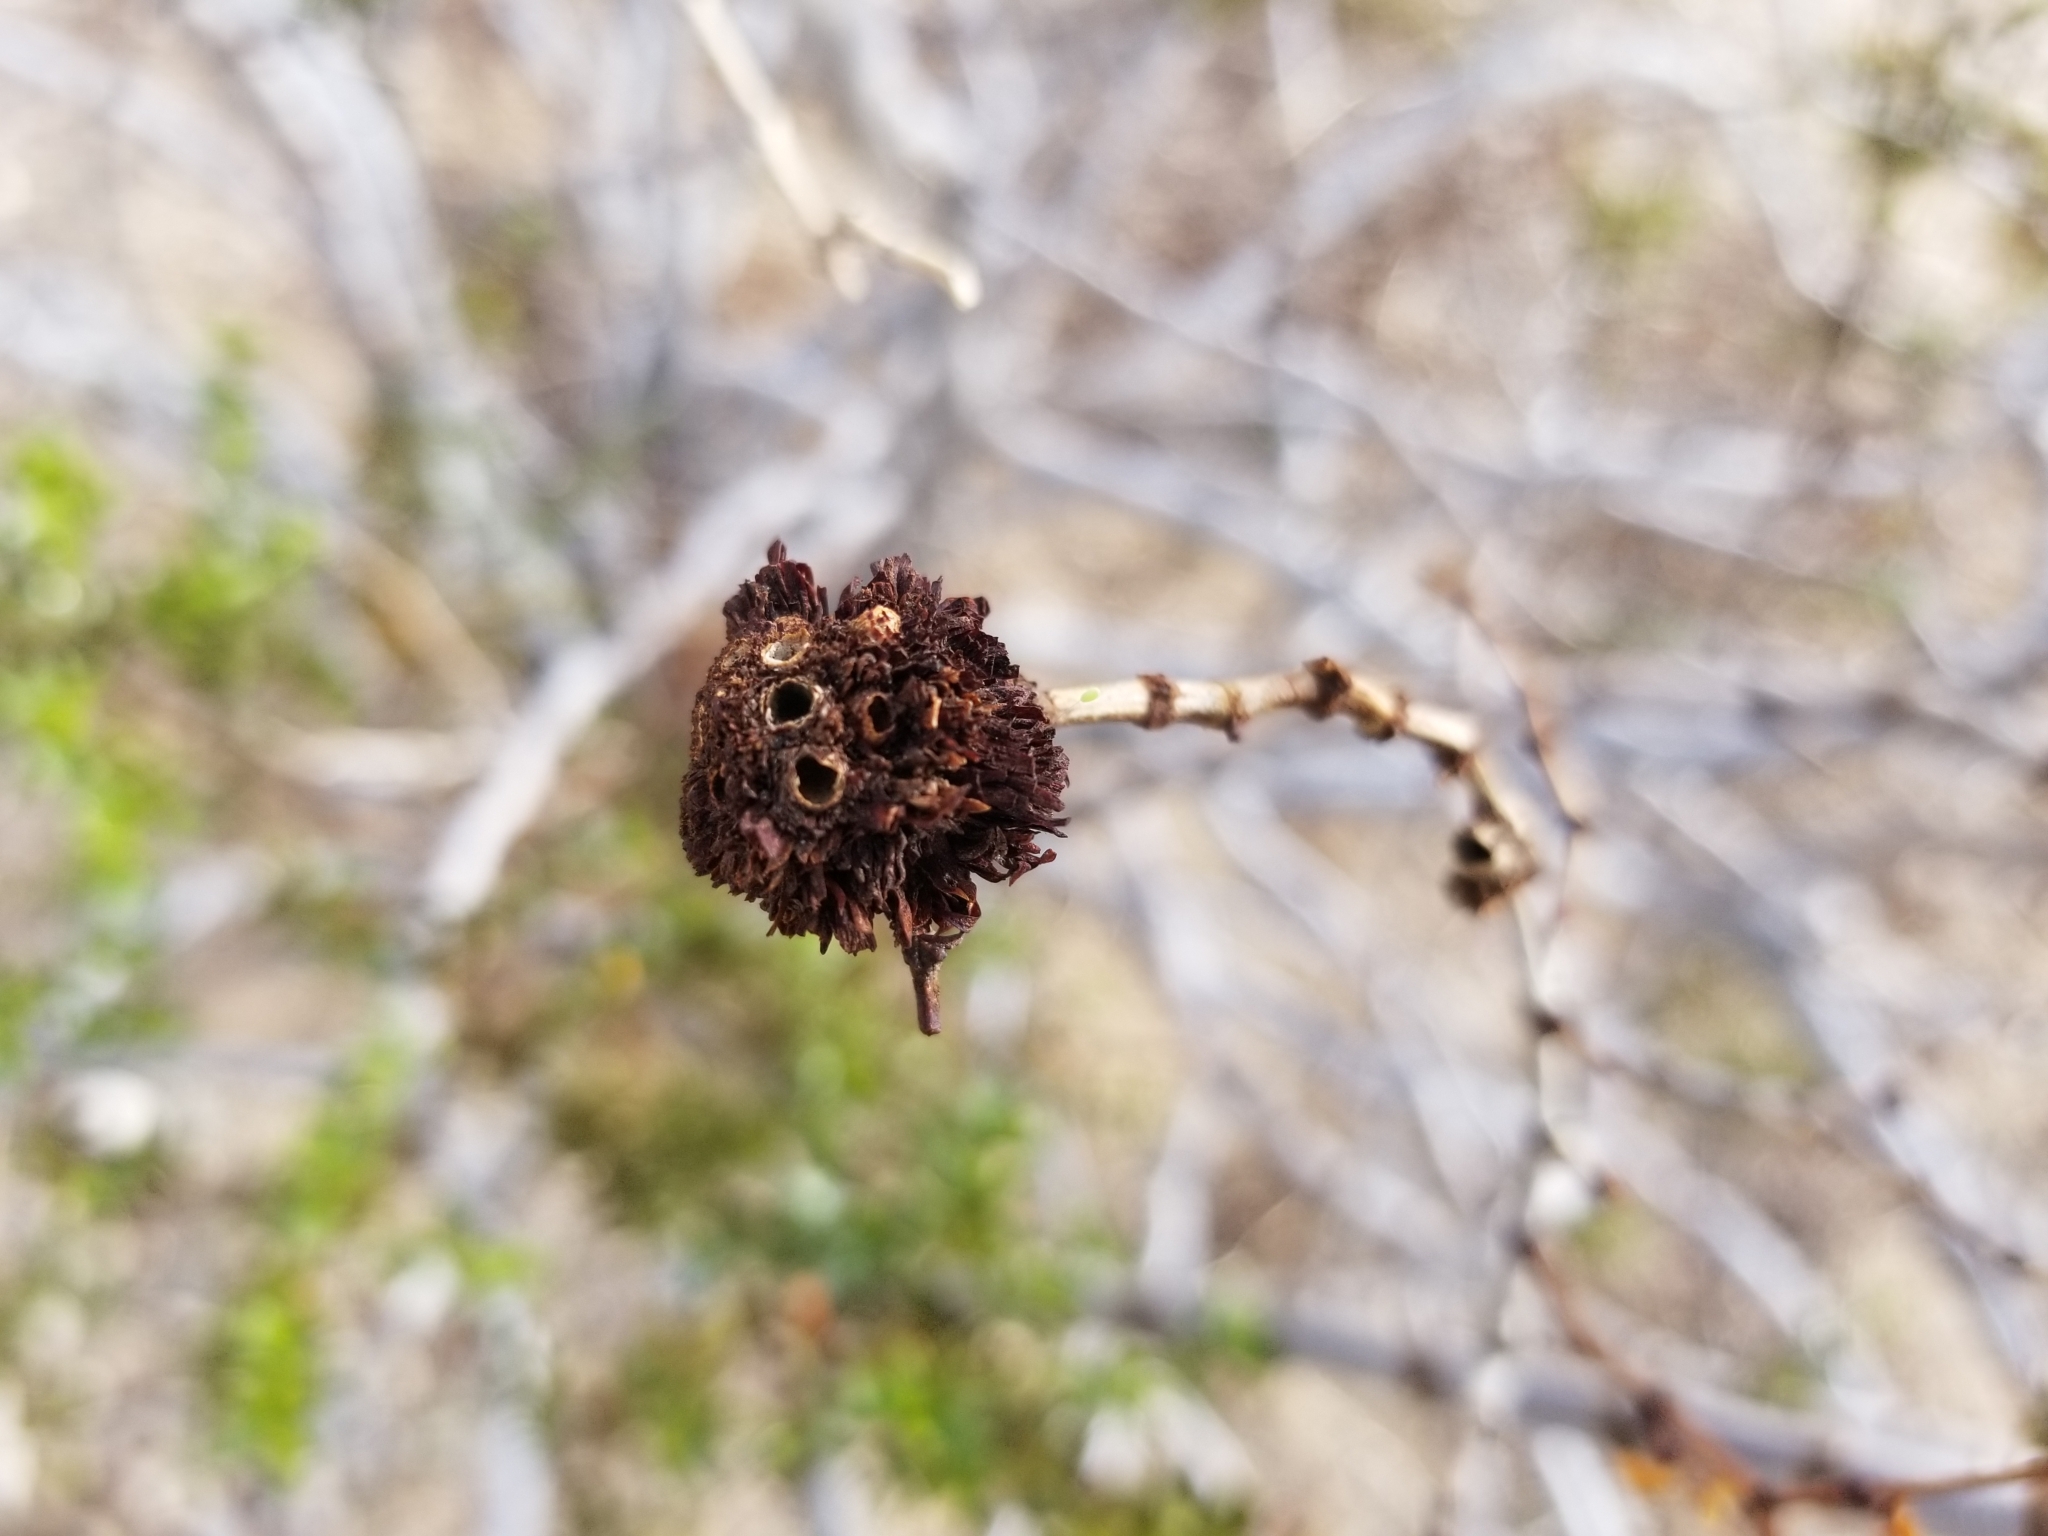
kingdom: Animalia
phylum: Arthropoda
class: Insecta
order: Diptera
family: Cecidomyiidae
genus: Asphondylia
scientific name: Asphondylia auripila
